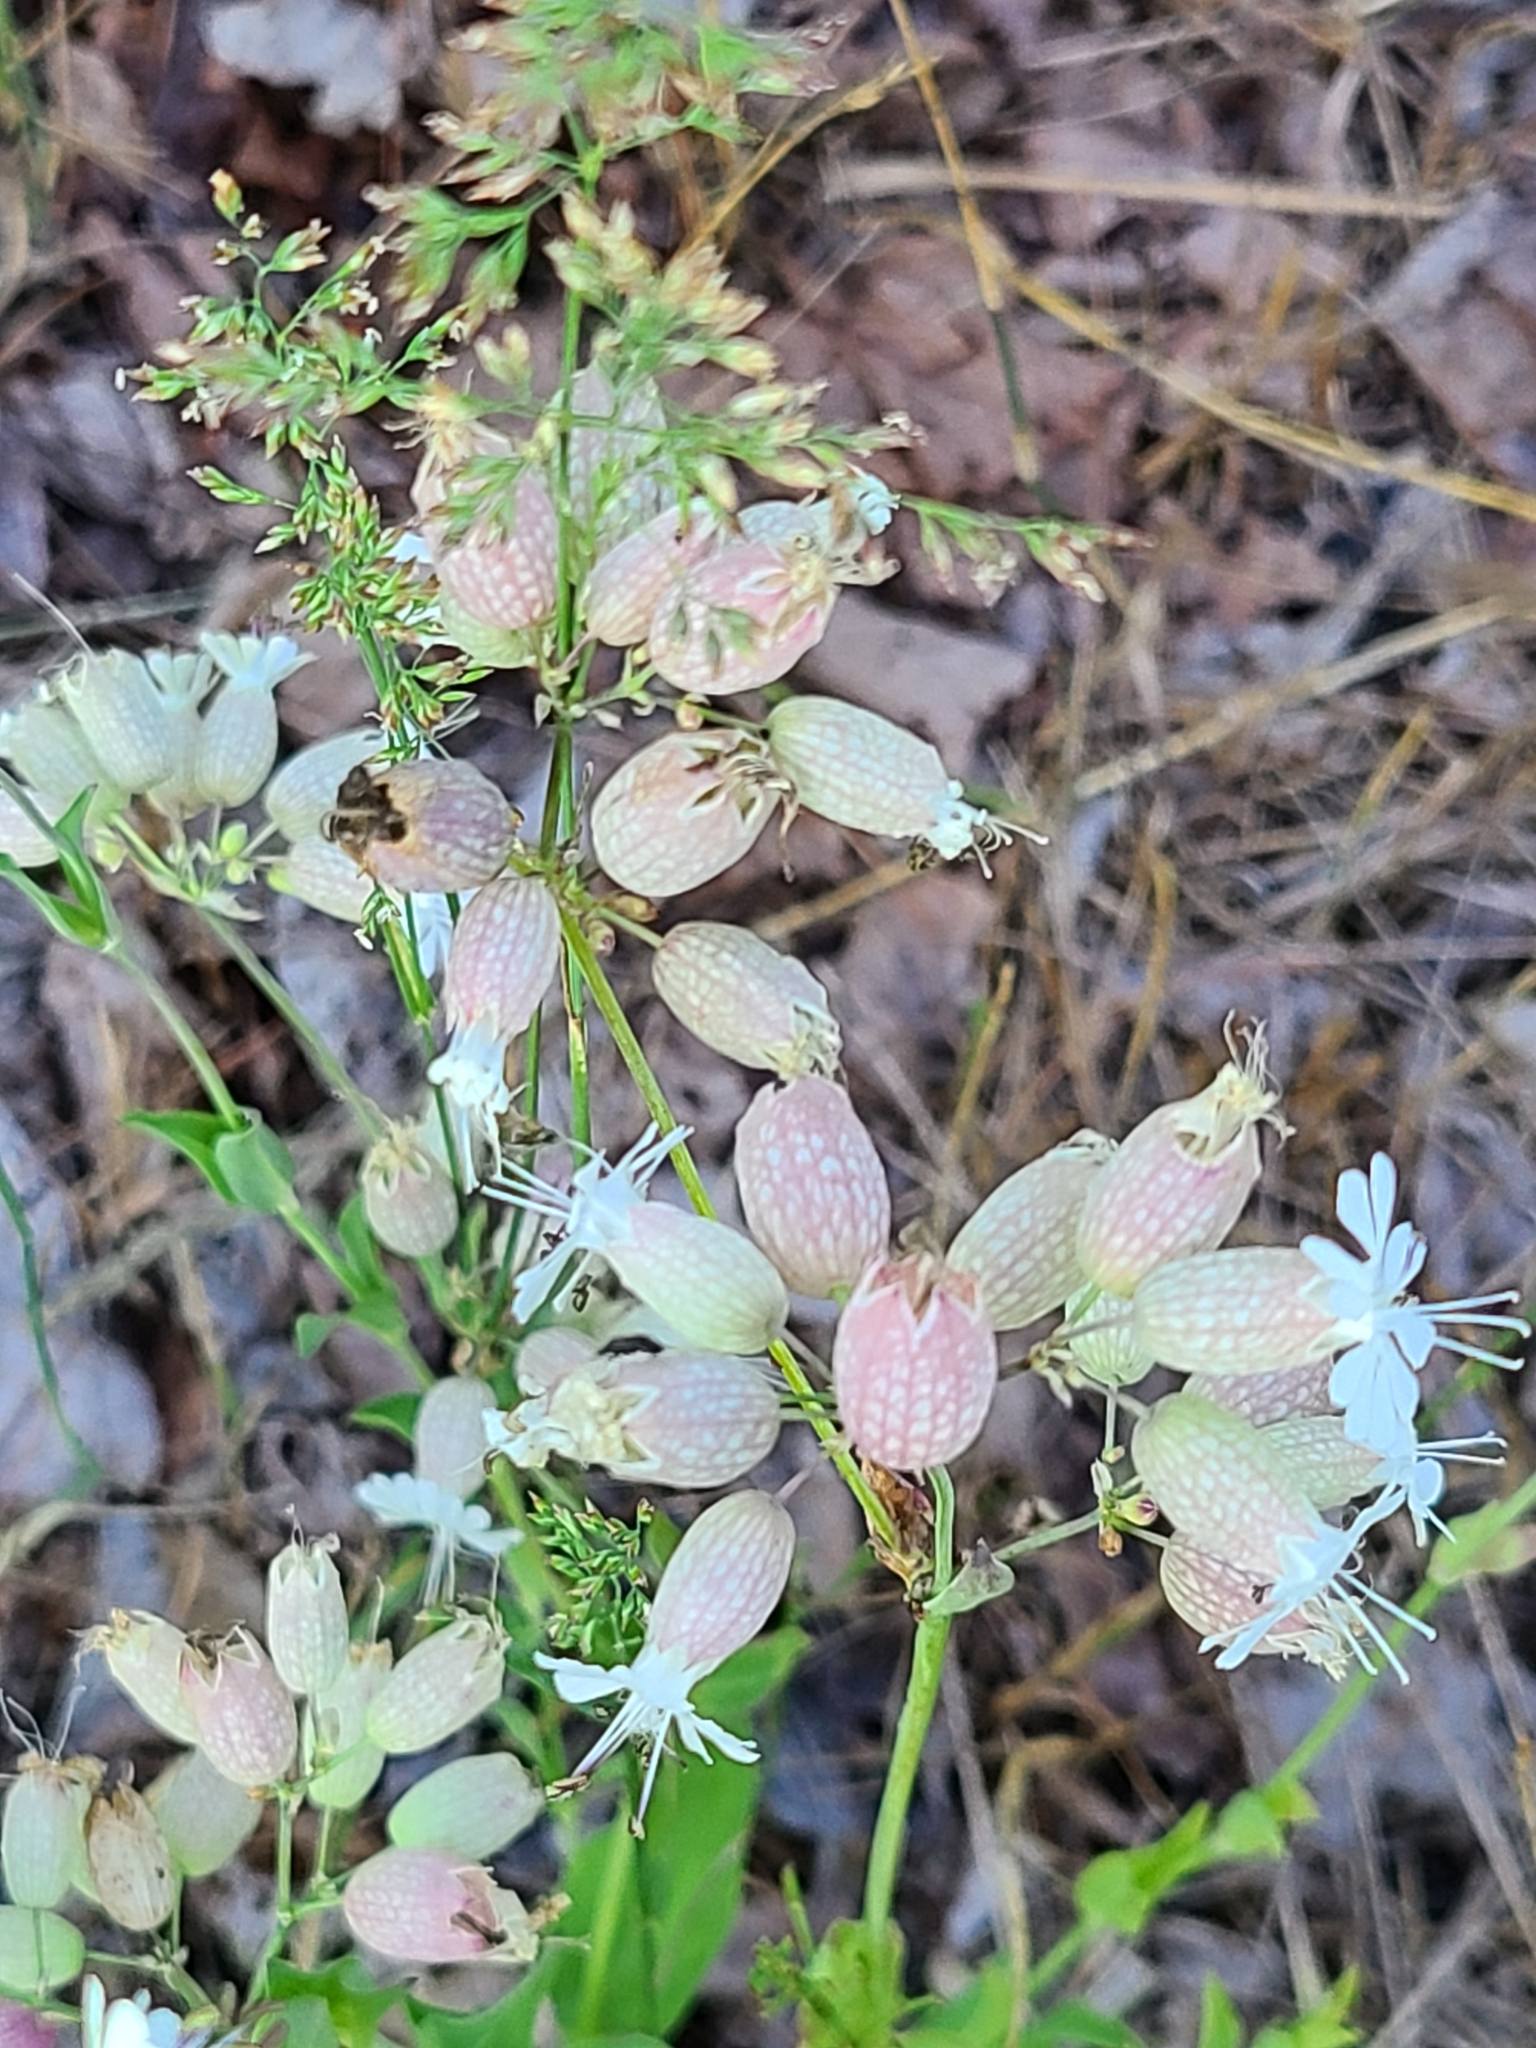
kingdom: Plantae
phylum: Tracheophyta
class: Magnoliopsida
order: Caryophyllales
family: Caryophyllaceae
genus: Silene
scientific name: Silene vulgaris
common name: Bladder campion
